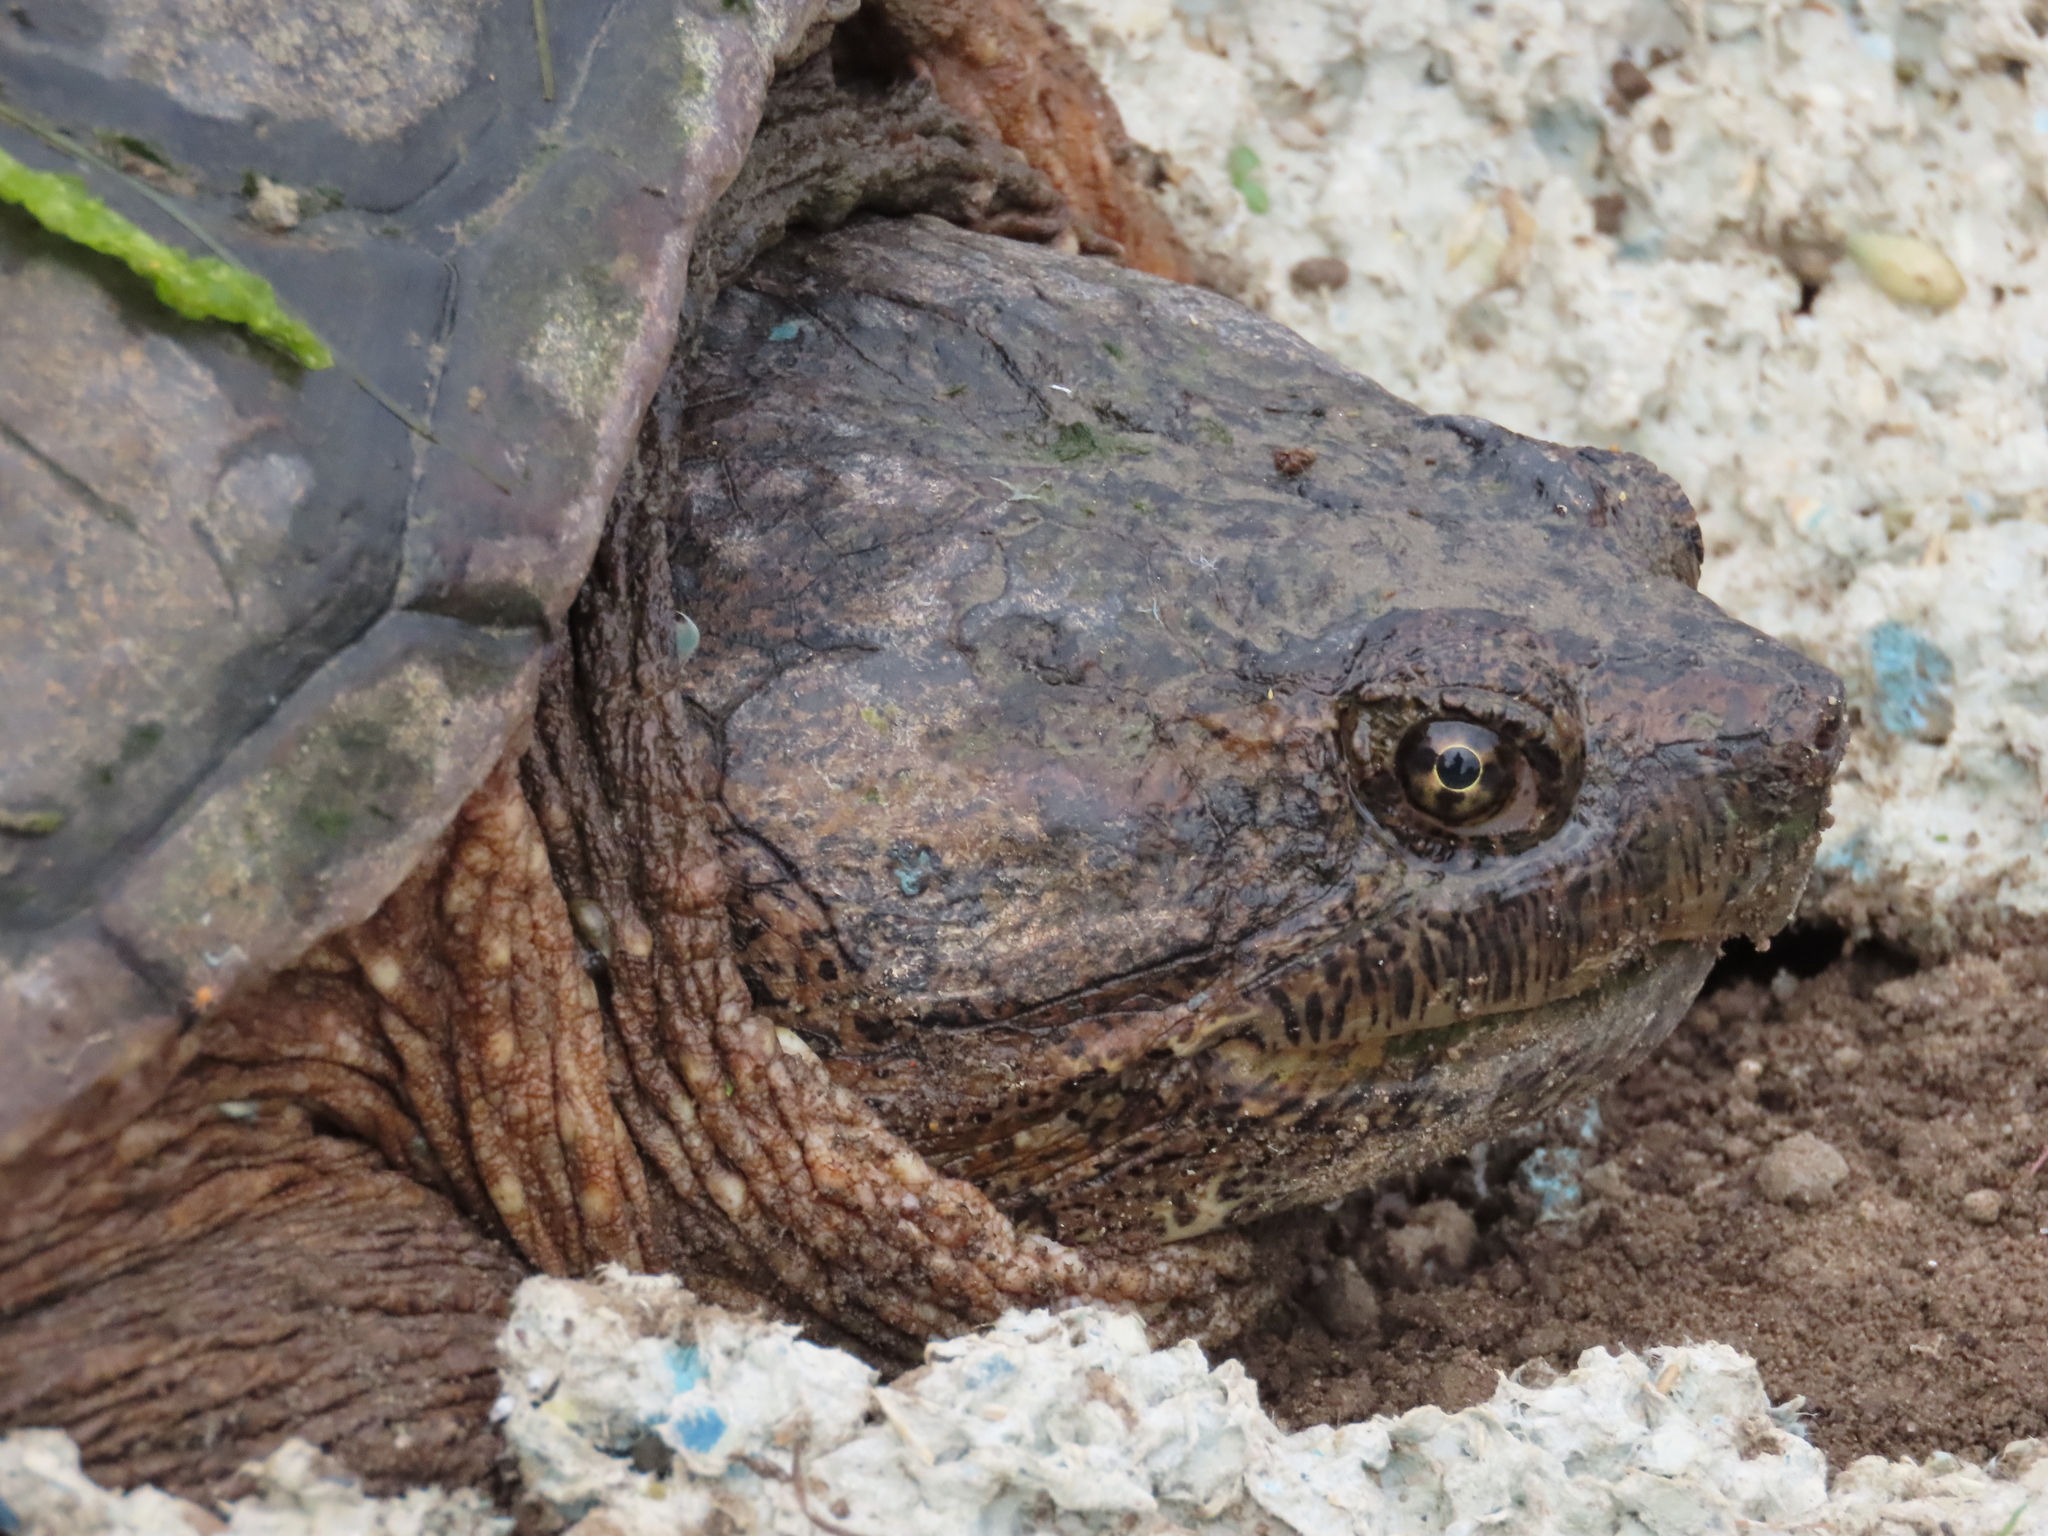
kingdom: Animalia
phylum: Chordata
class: Testudines
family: Chelydridae
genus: Chelydra
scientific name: Chelydra serpentina
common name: Common snapping turtle
